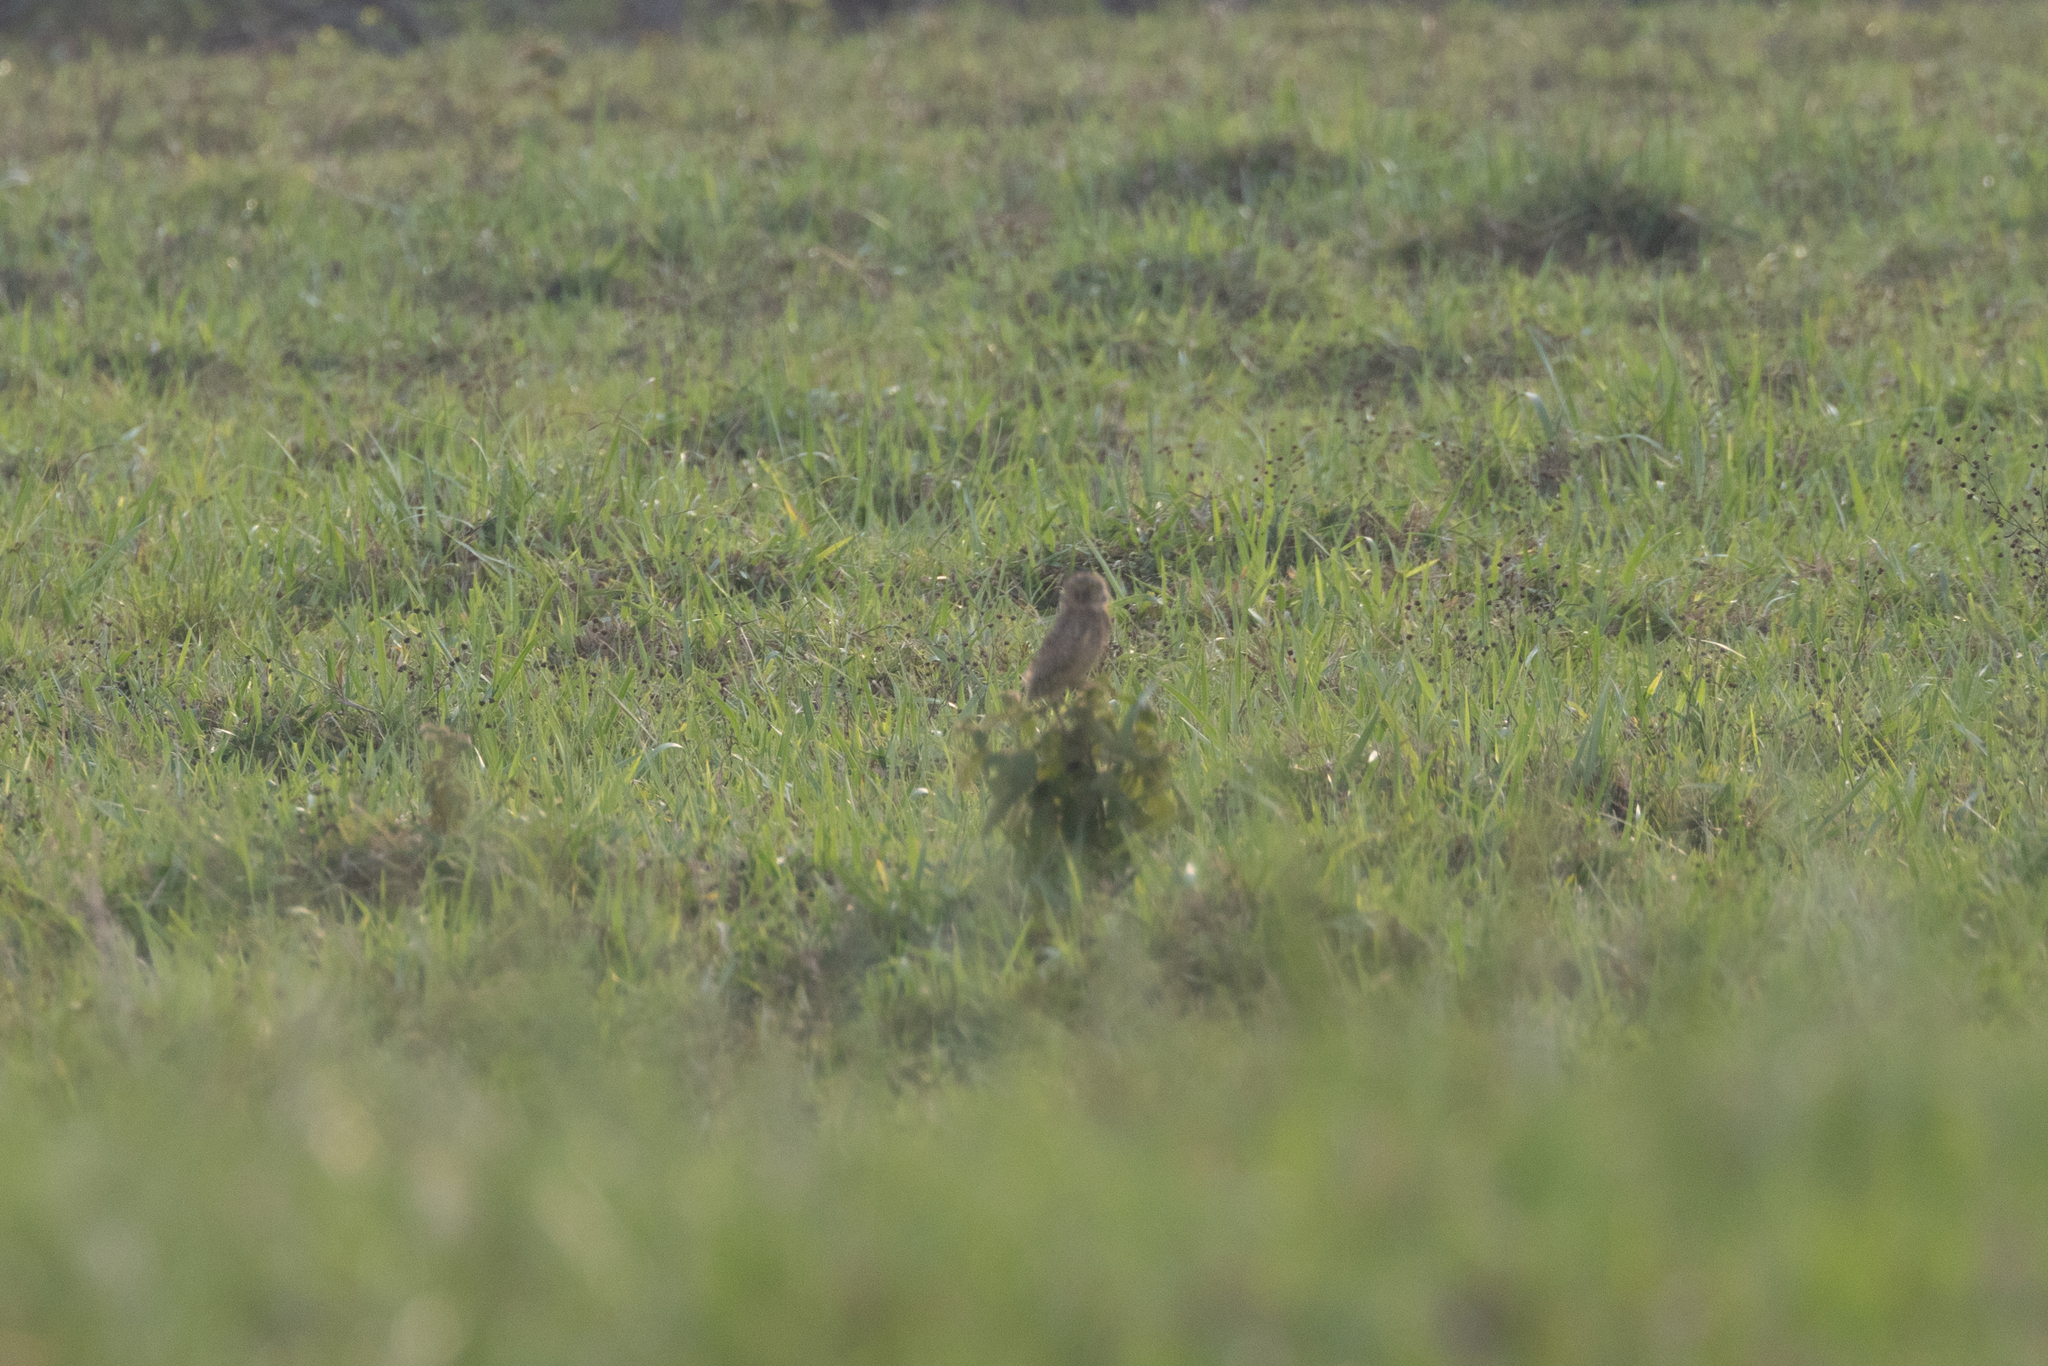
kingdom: Animalia
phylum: Chordata
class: Aves
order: Strigiformes
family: Strigidae
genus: Athene
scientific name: Athene cunicularia
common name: Burrowing owl
